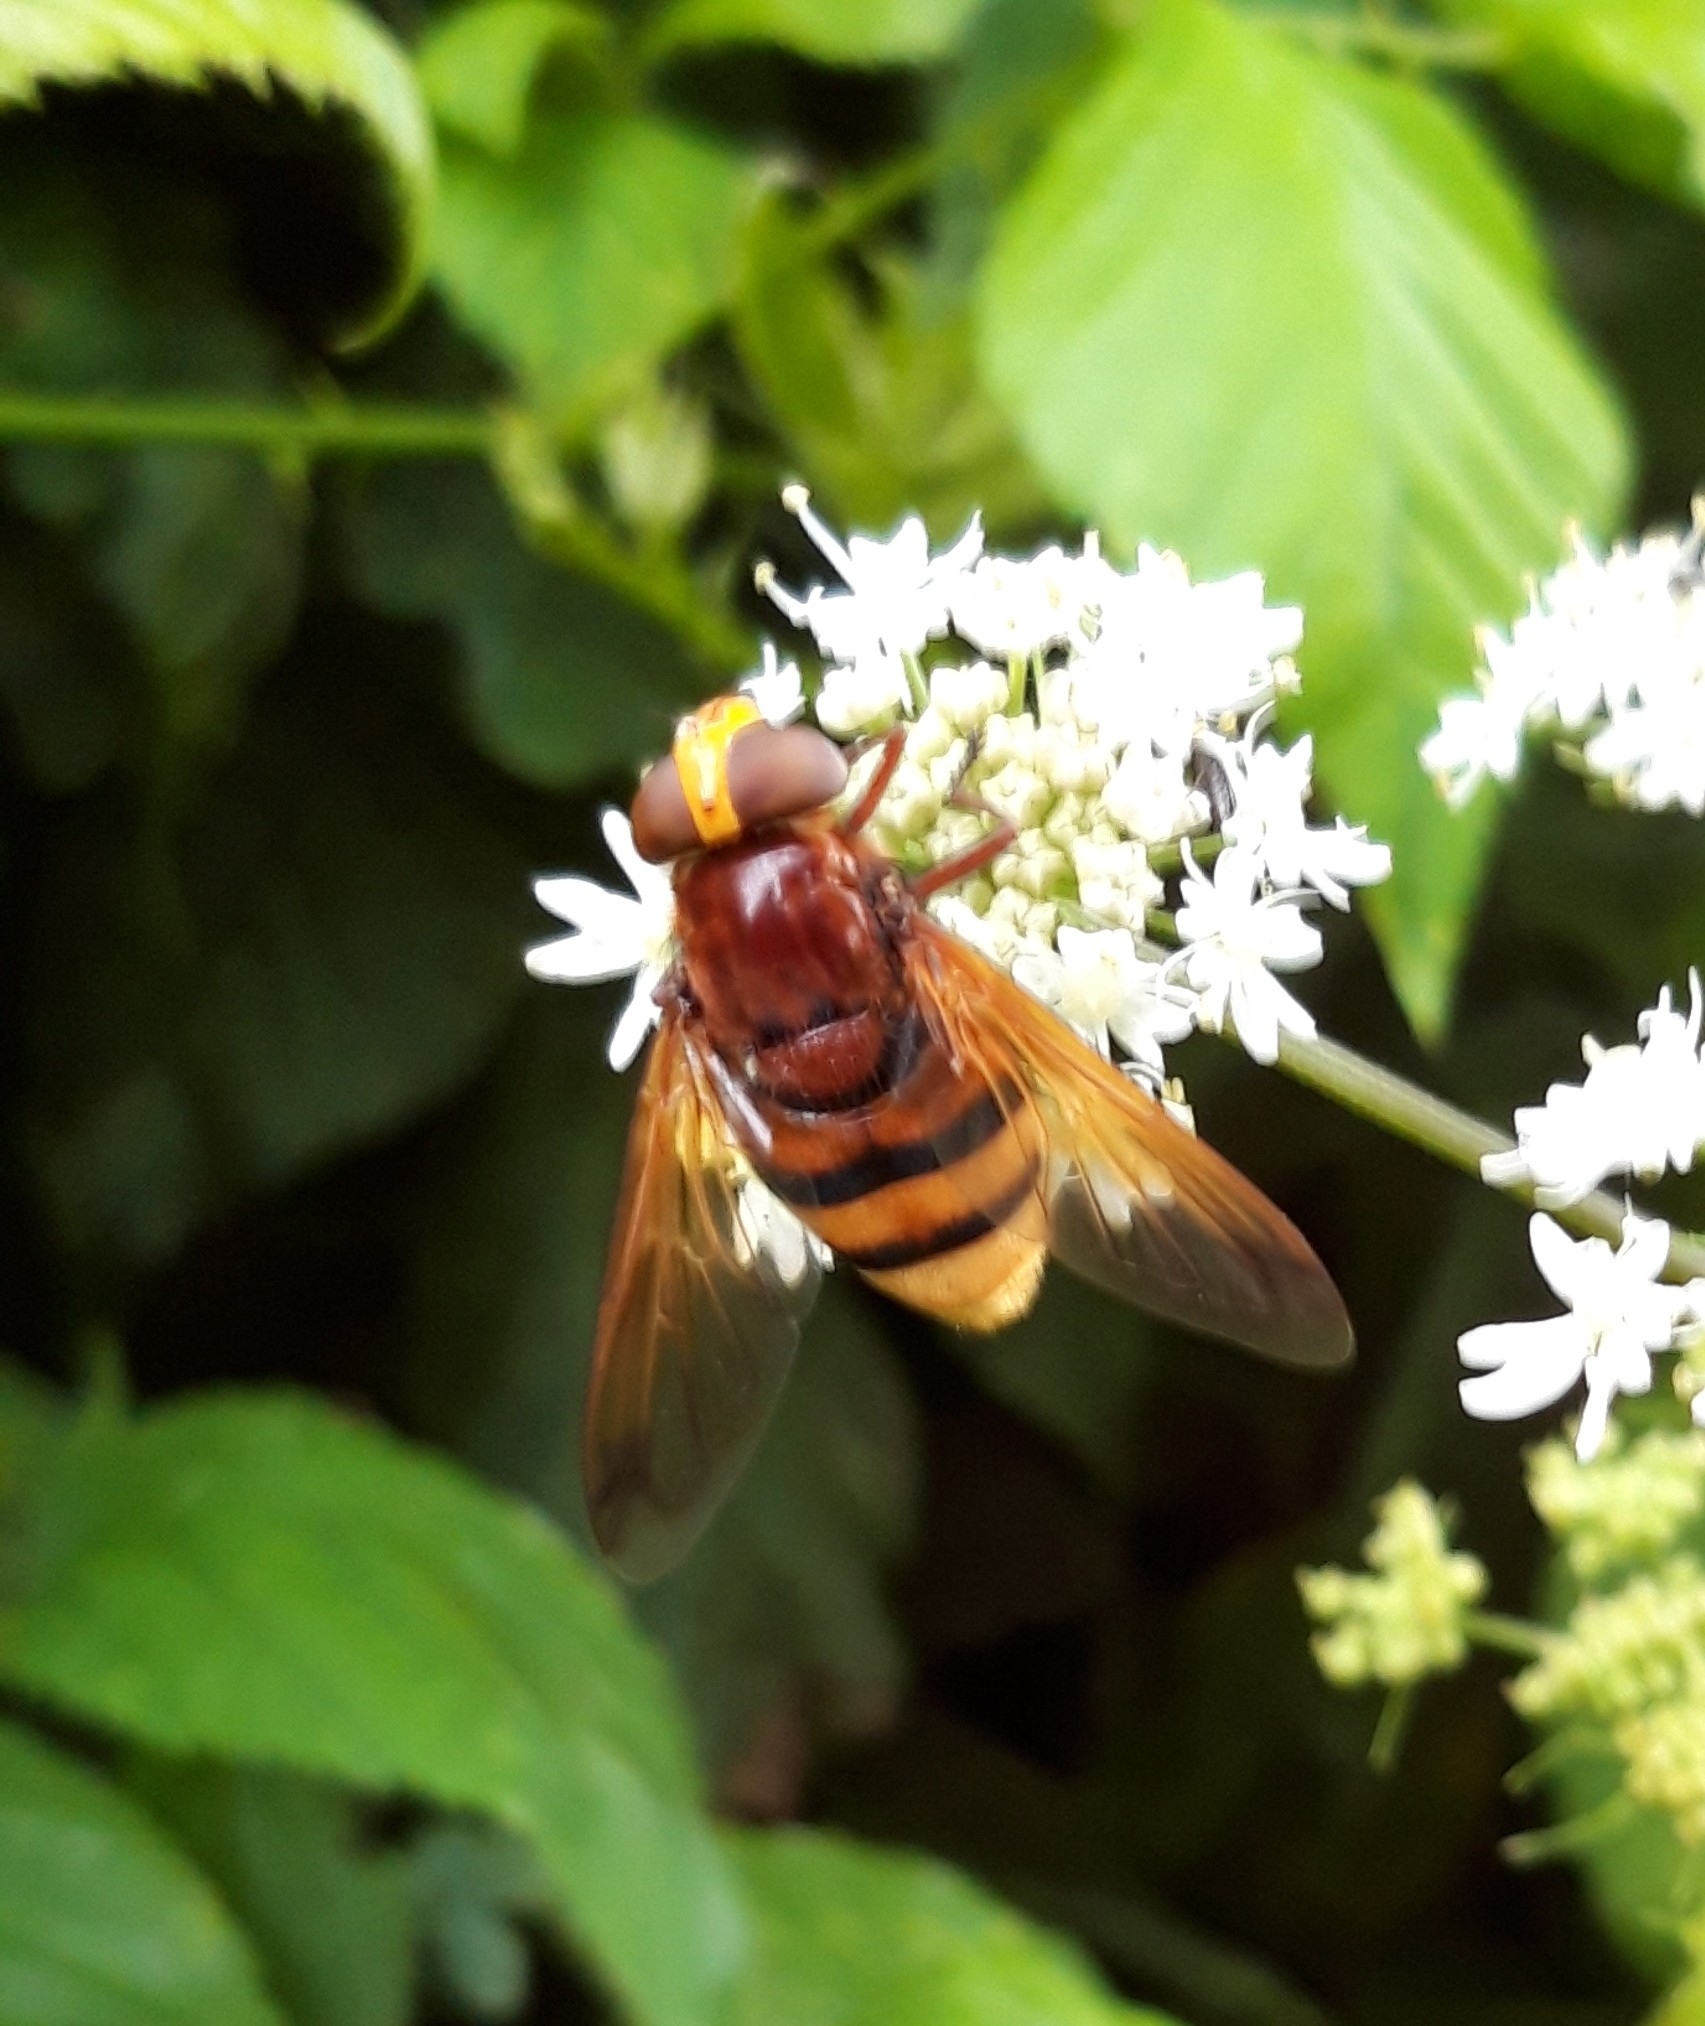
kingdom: Animalia
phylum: Arthropoda
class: Insecta
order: Diptera
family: Syrphidae
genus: Volucella
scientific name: Volucella zonaria
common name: Hornet hoverfly
